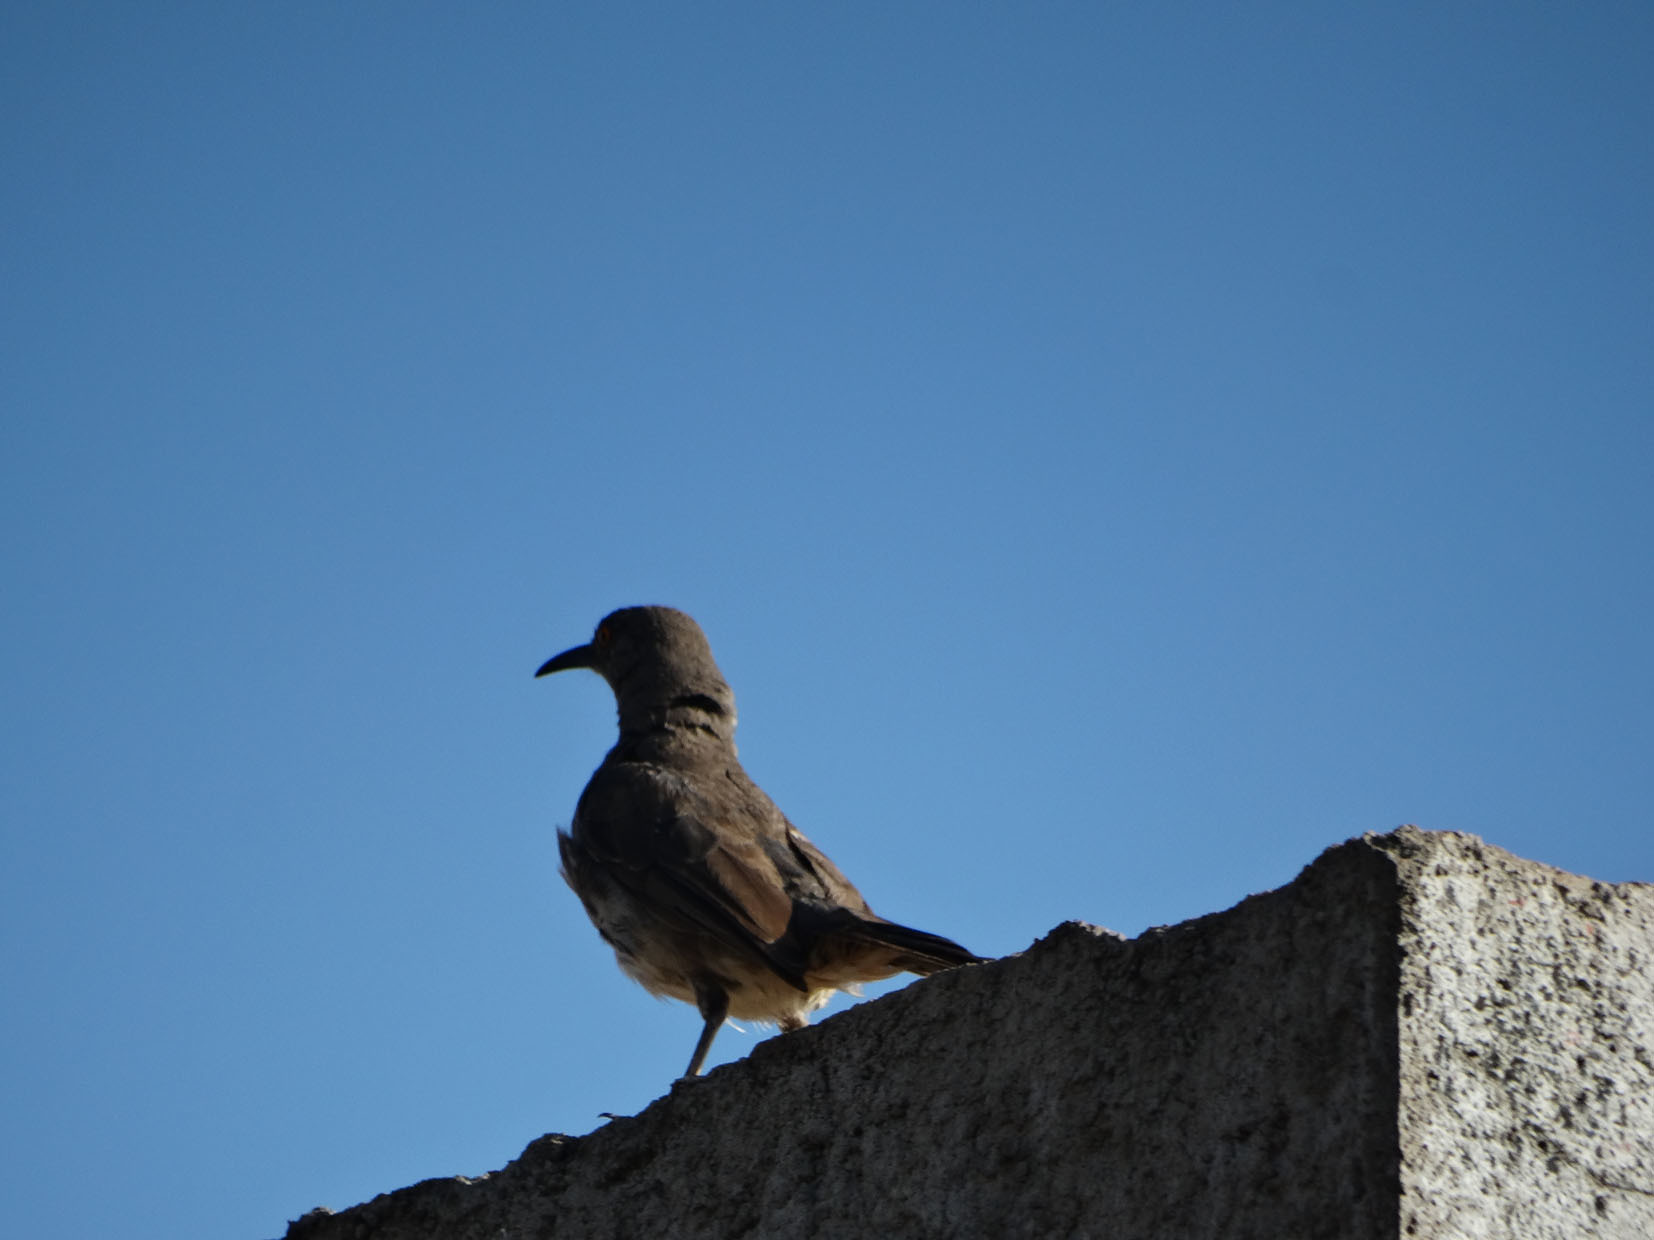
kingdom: Animalia
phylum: Chordata
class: Aves
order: Passeriformes
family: Mimidae
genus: Toxostoma
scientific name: Toxostoma curvirostre
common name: Curve-billed thrasher
